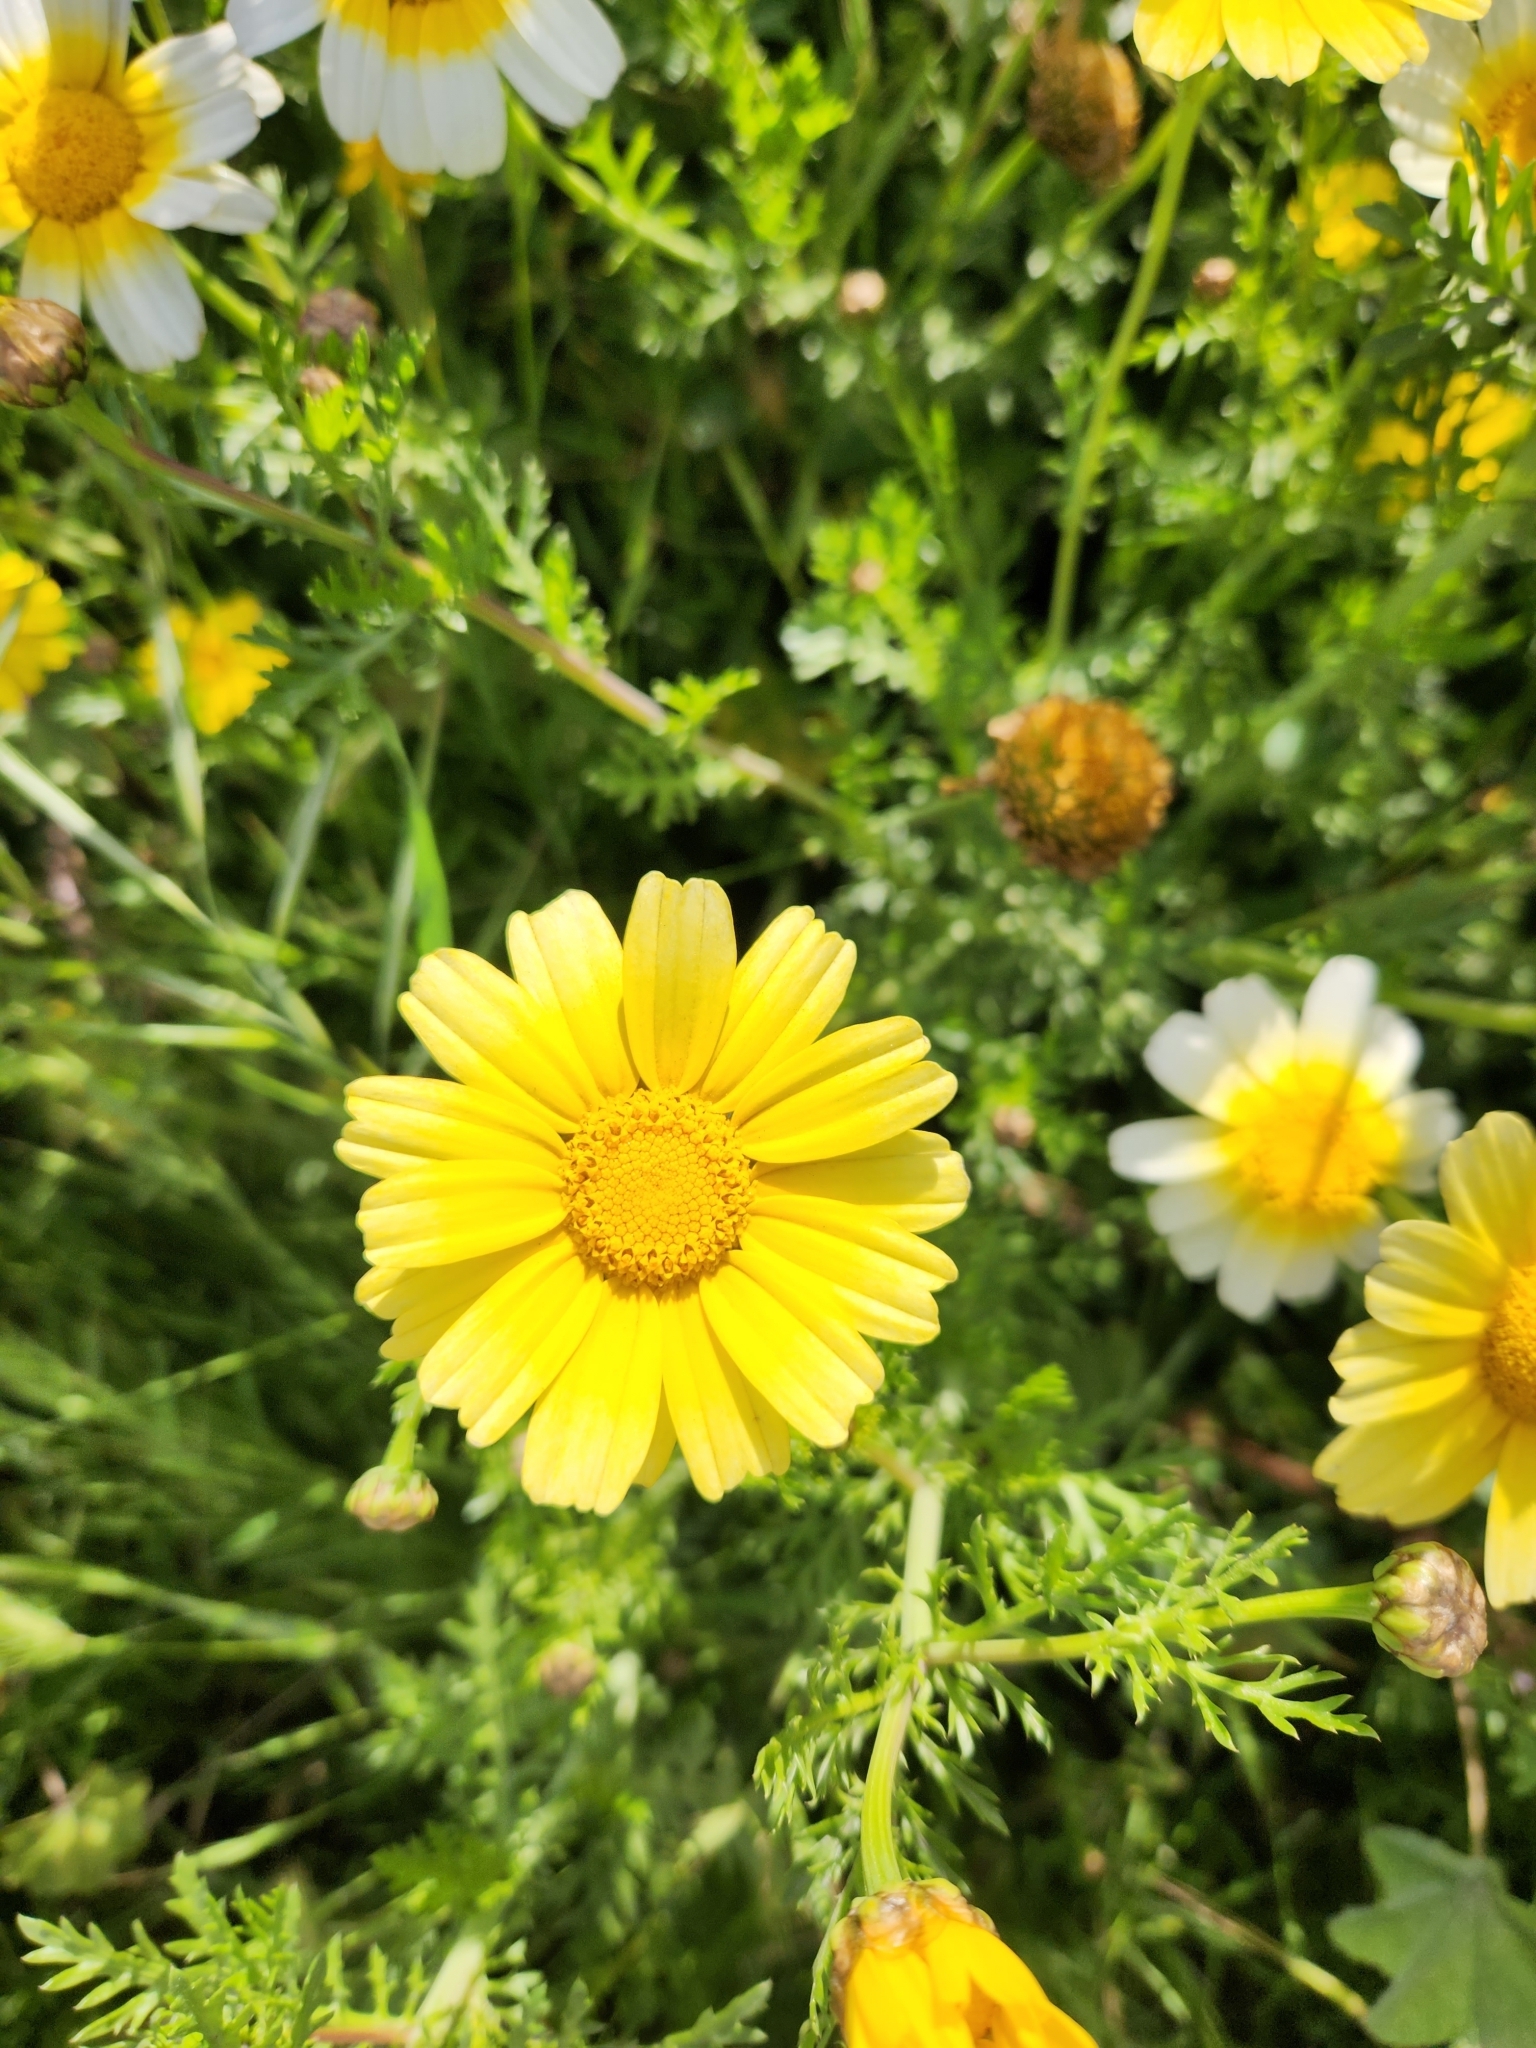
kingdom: Plantae
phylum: Tracheophyta
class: Magnoliopsida
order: Asterales
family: Asteraceae
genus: Glebionis
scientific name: Glebionis coronaria
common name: Crowndaisy
